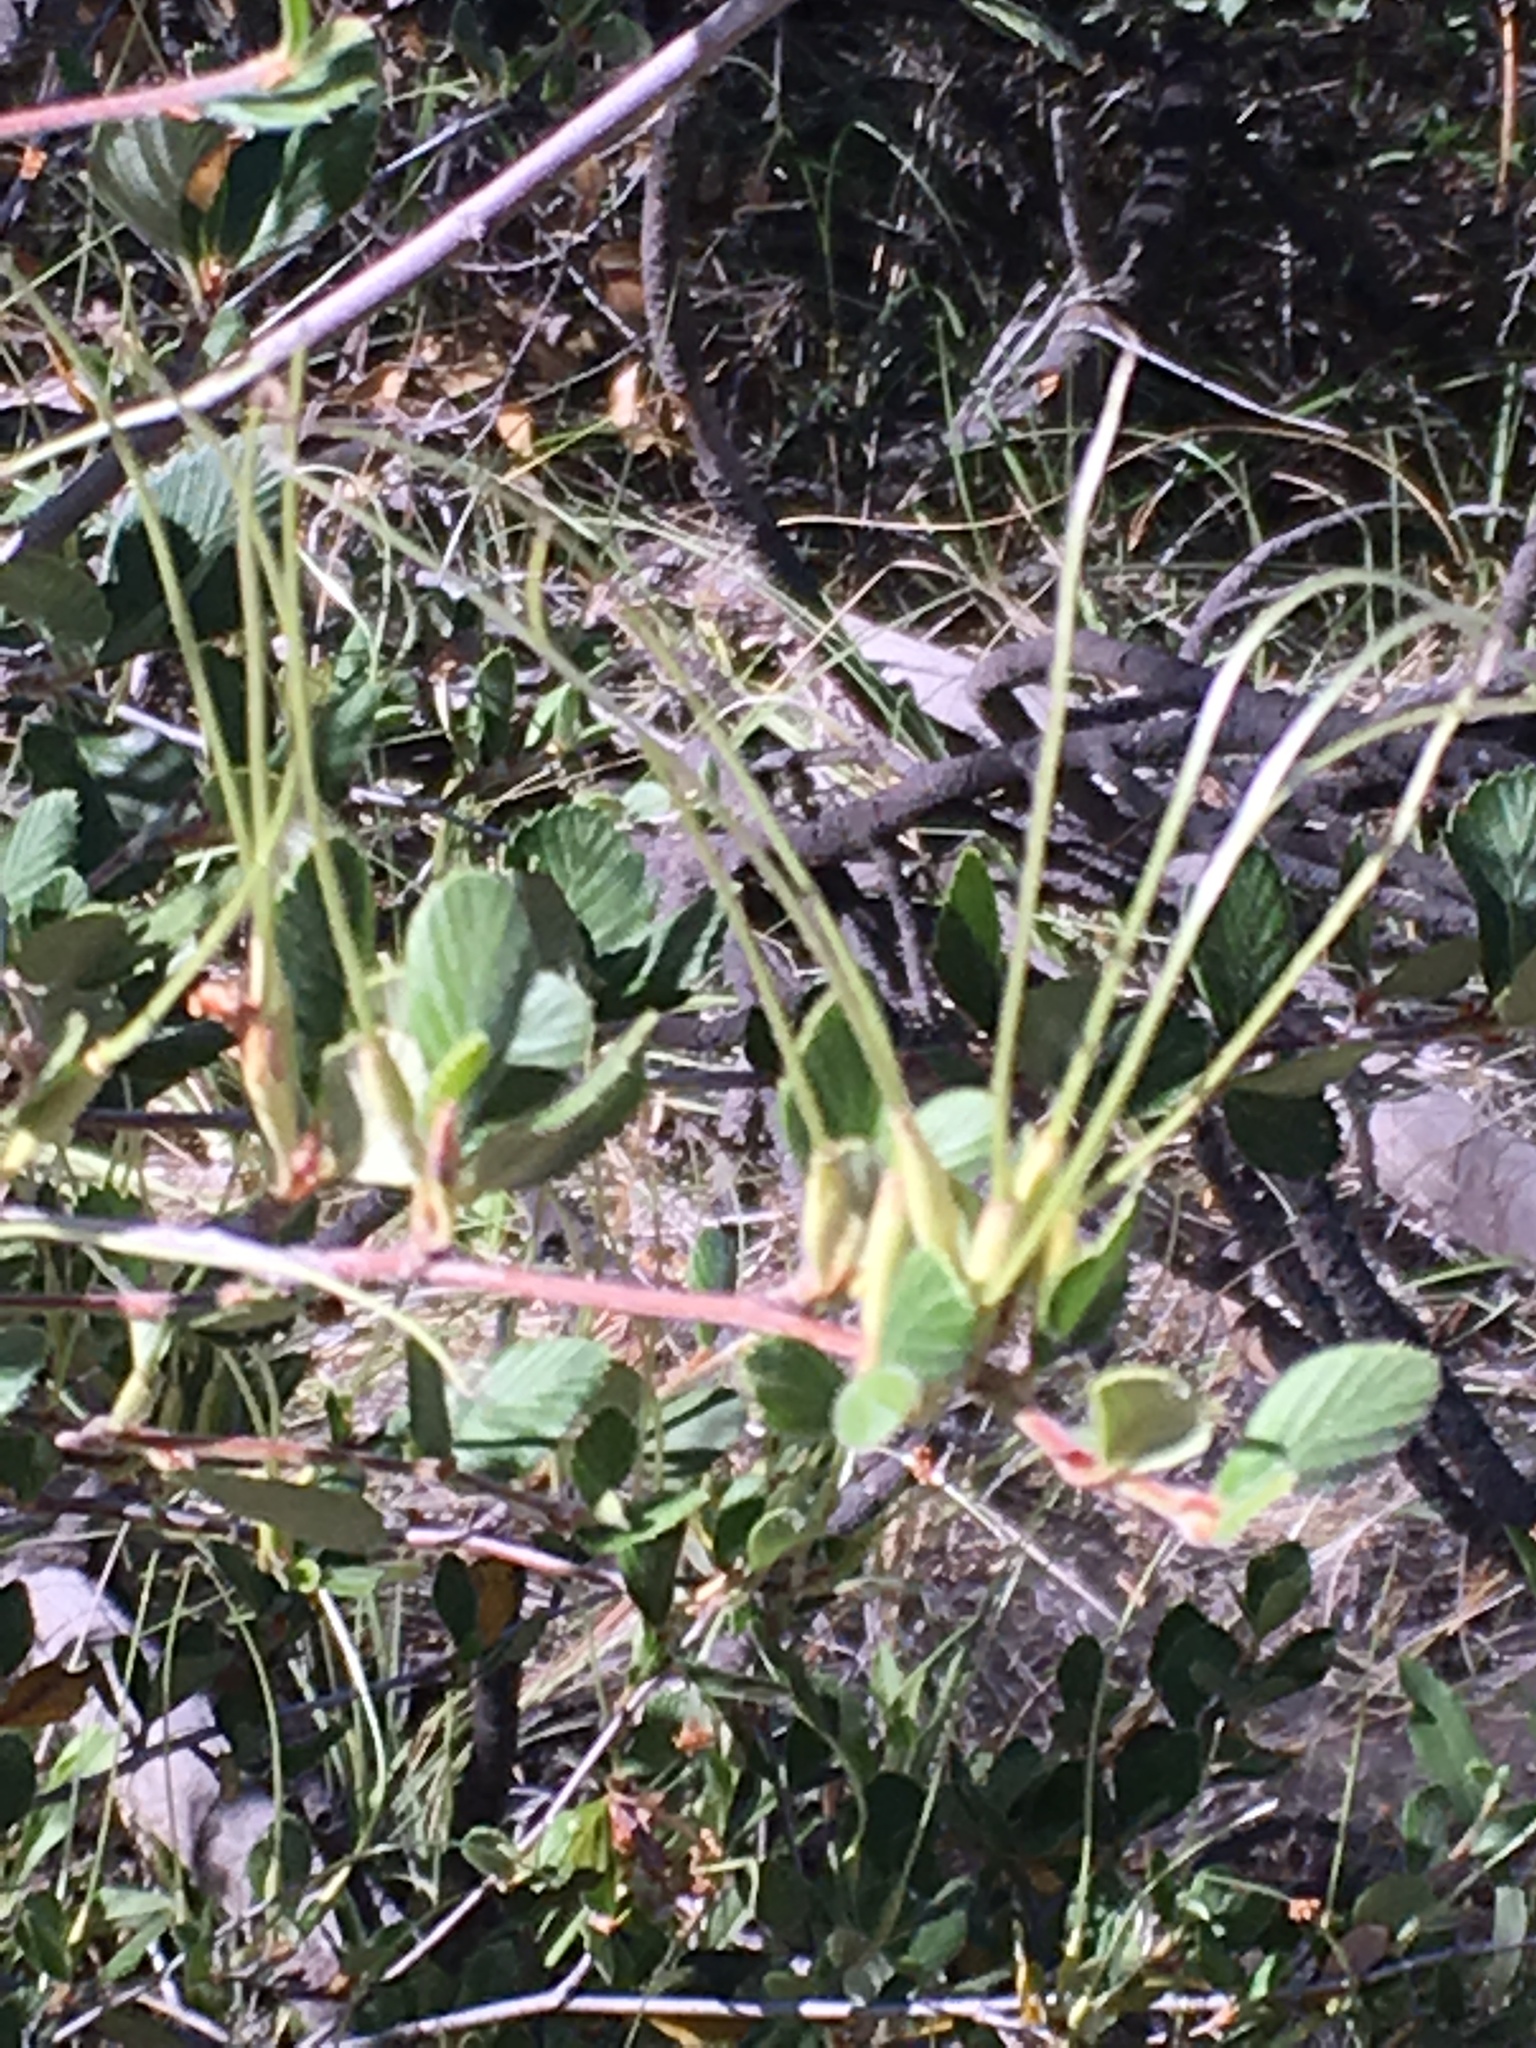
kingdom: Plantae
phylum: Tracheophyta
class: Magnoliopsida
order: Rosales
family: Rosaceae
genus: Cercocarpus
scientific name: Cercocarpus betuloides
